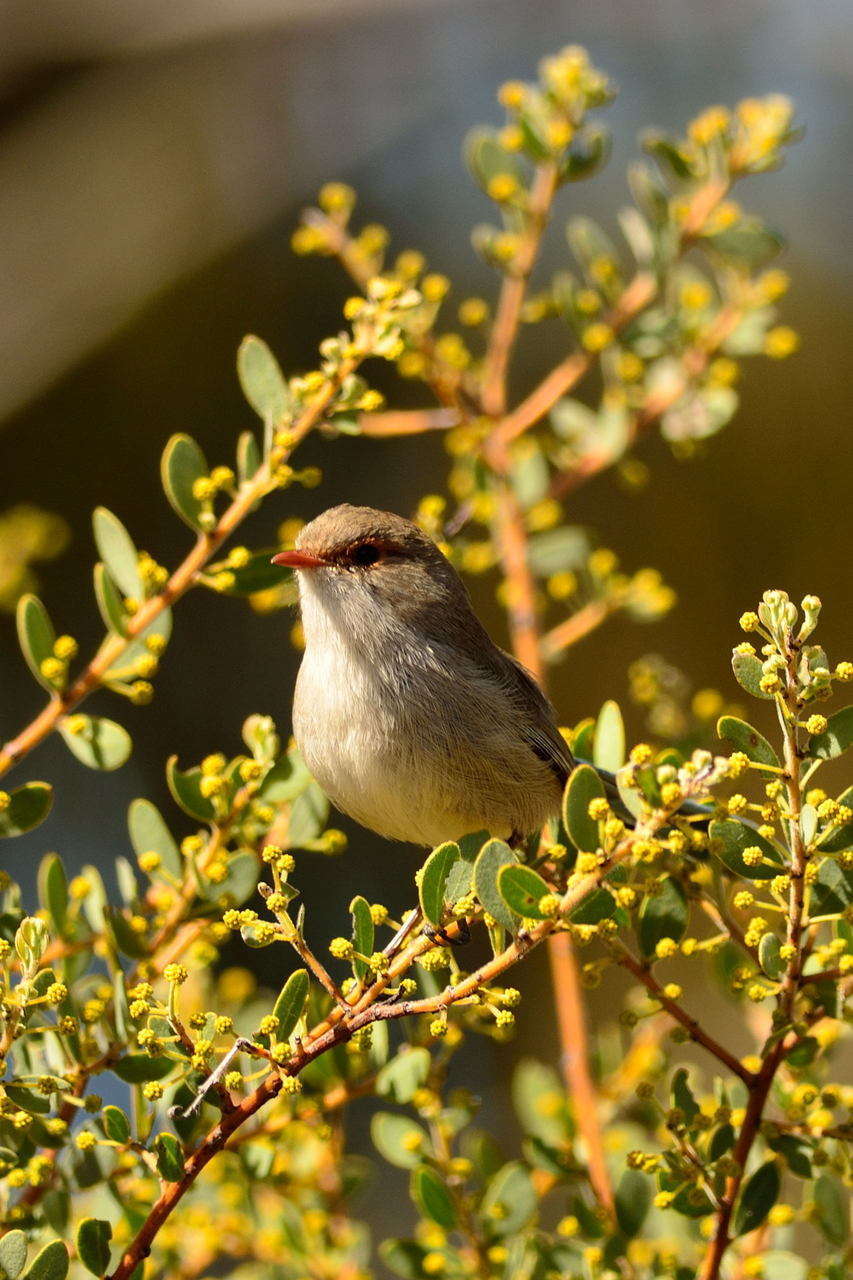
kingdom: Animalia
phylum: Chordata
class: Aves
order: Passeriformes
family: Maluridae
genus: Malurus
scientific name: Malurus splendens
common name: Splendid fairywren
